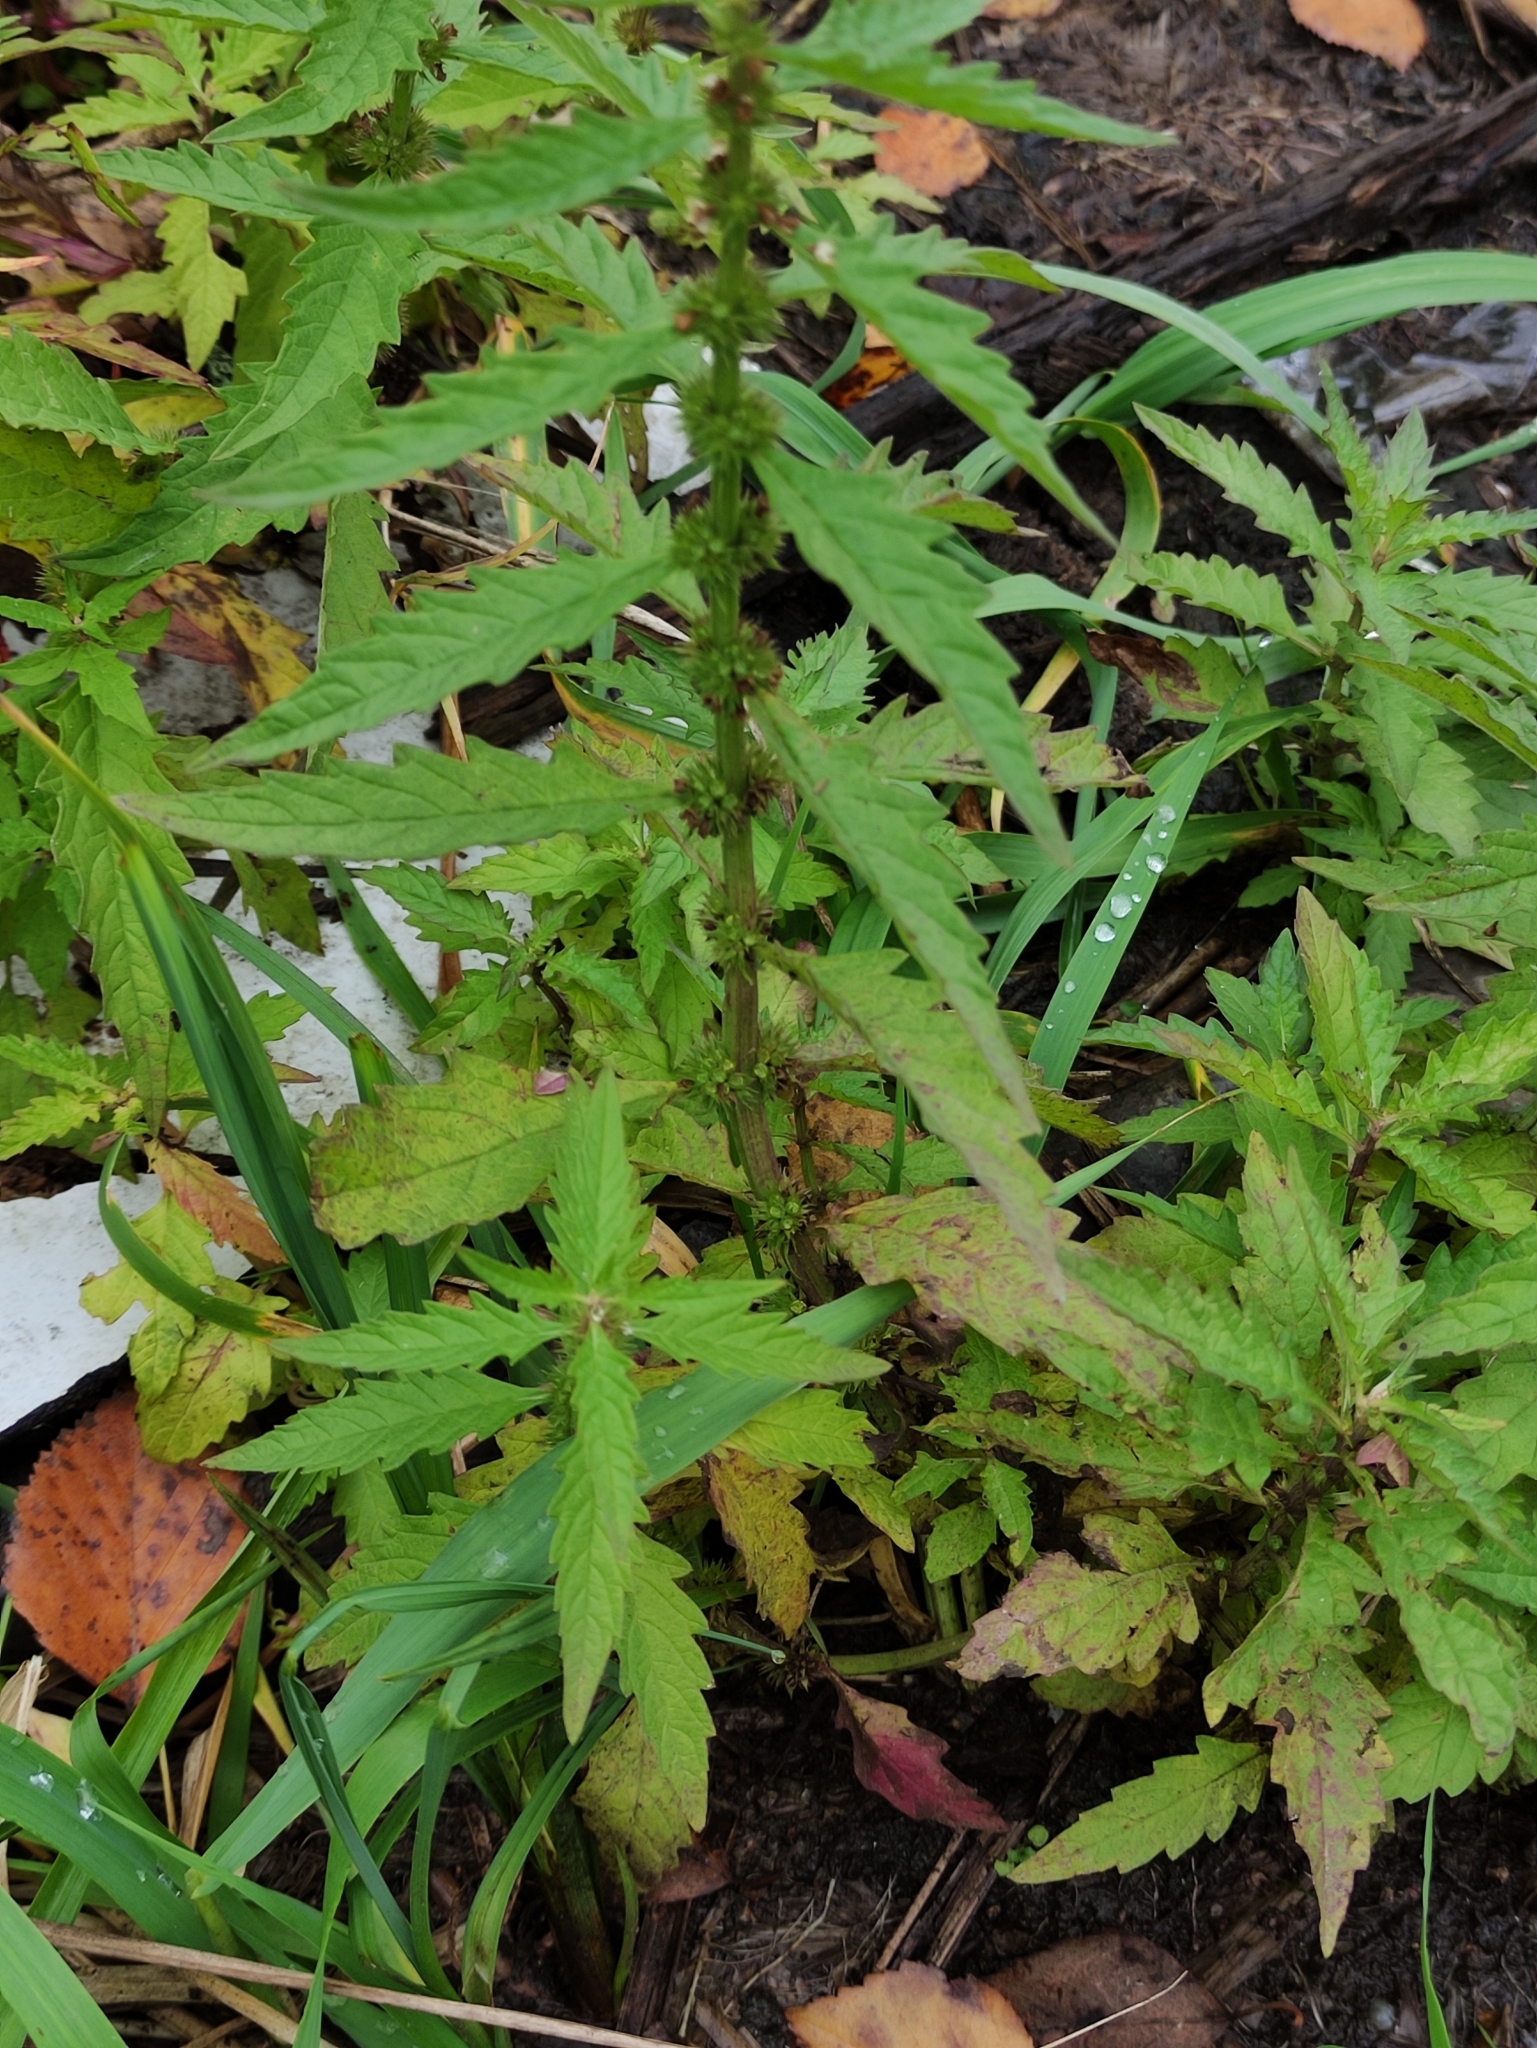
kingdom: Plantae
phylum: Tracheophyta
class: Magnoliopsida
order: Lamiales
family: Lamiaceae
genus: Lycopus
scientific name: Lycopus europaeus
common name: European bugleweed
